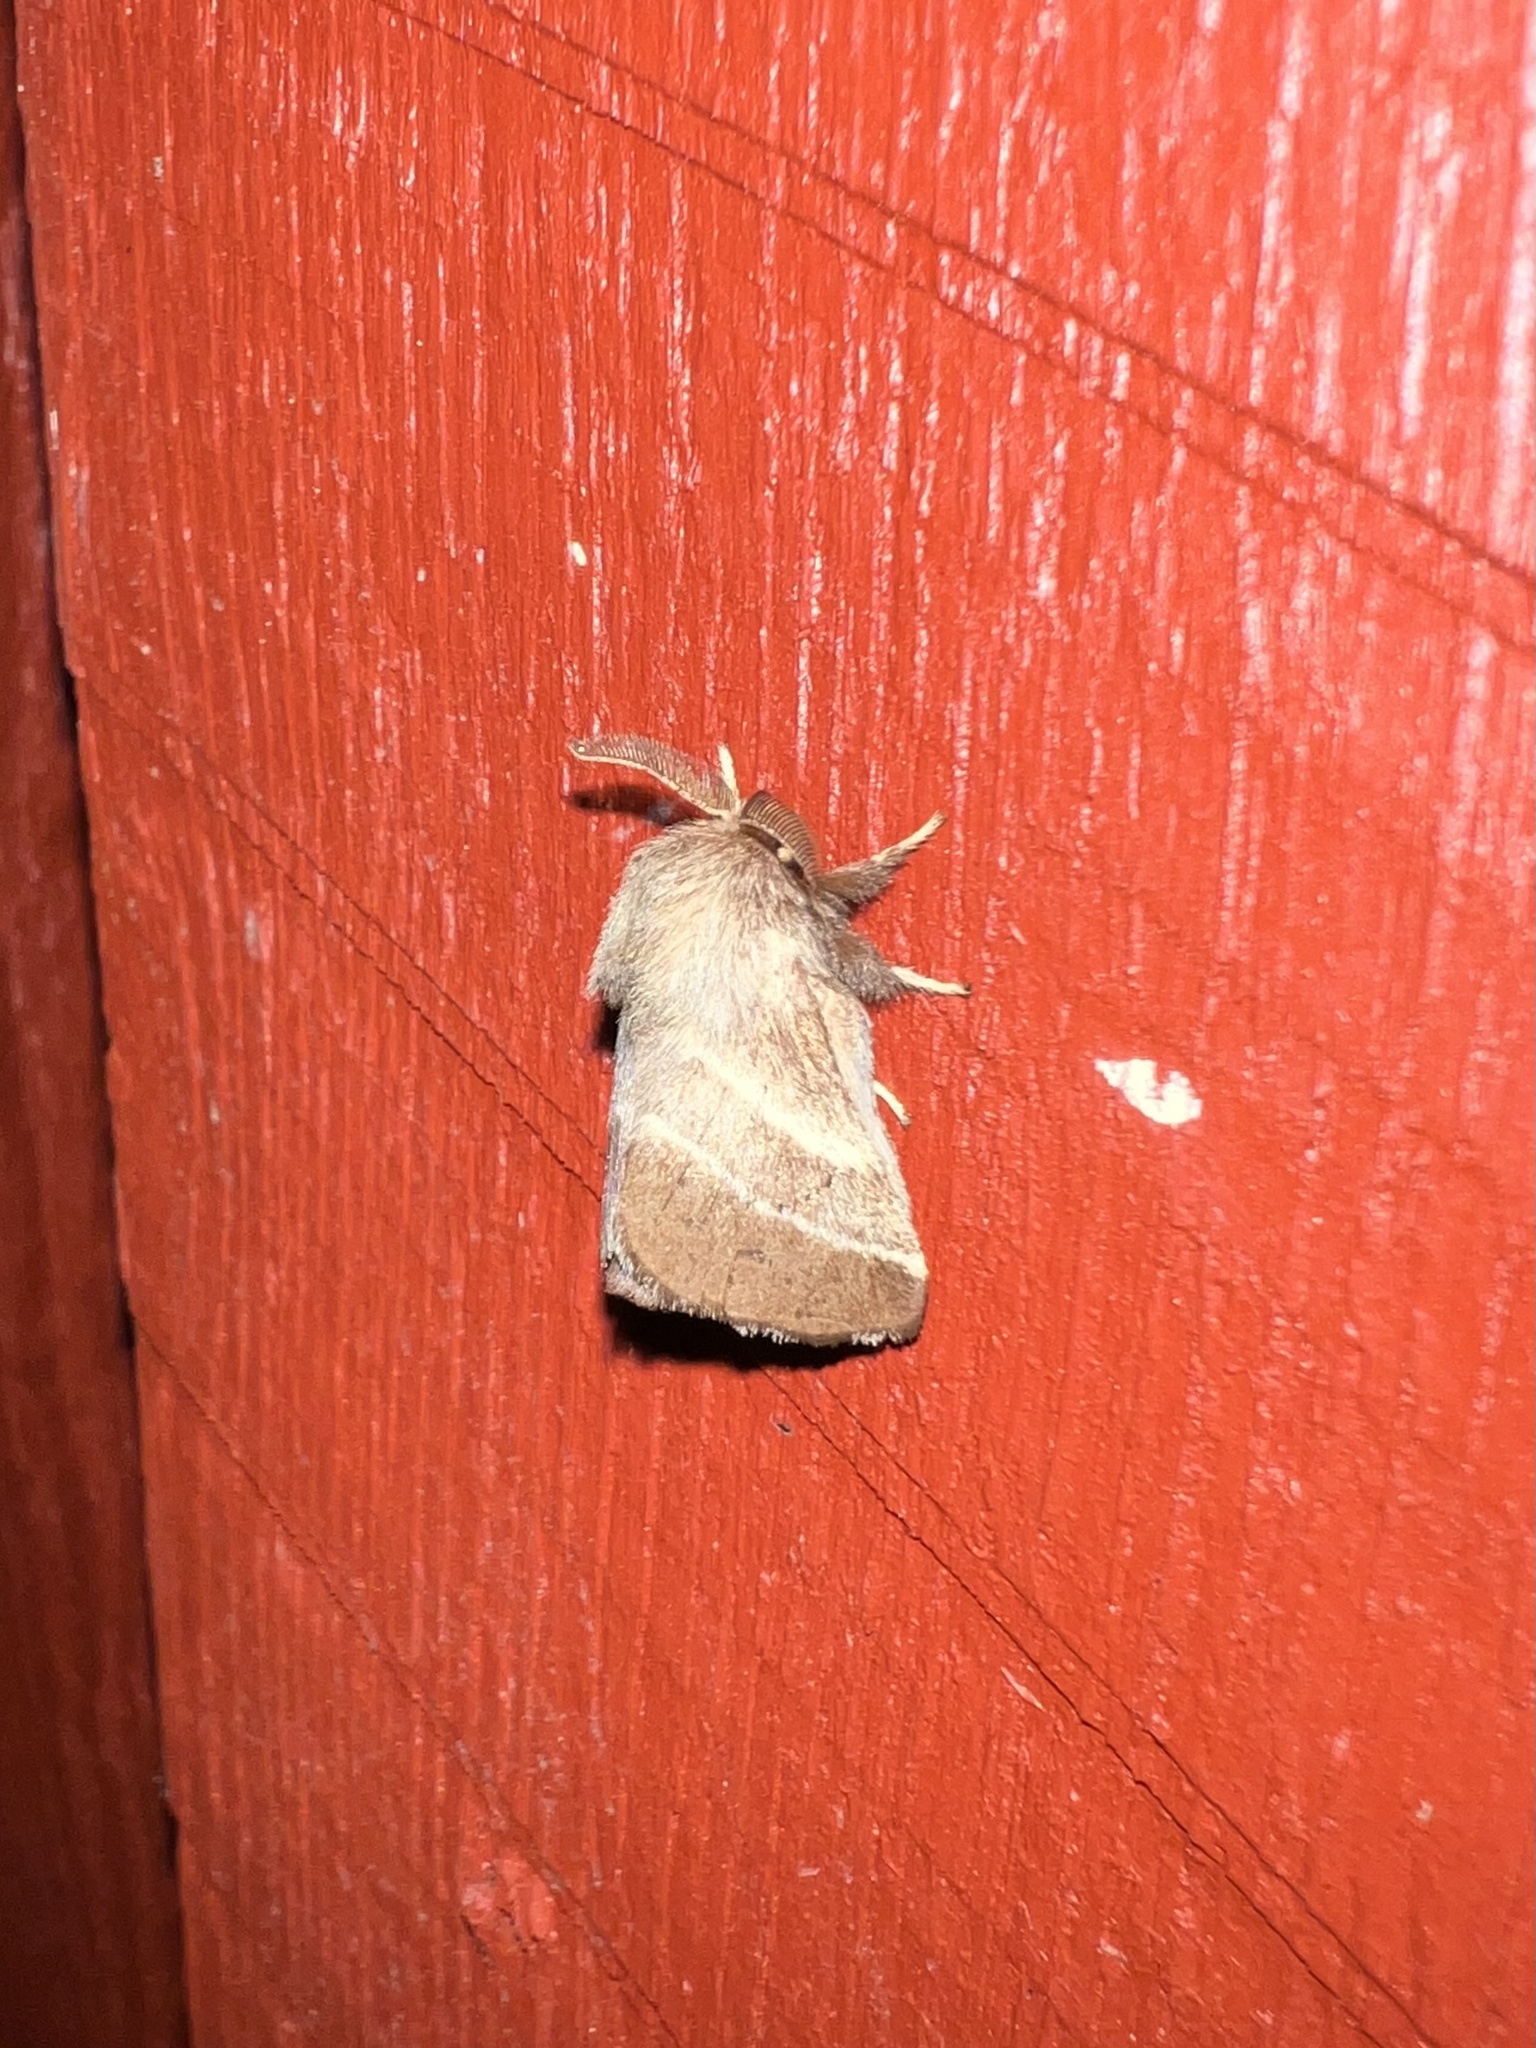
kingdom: Animalia
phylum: Arthropoda
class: Insecta
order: Lepidoptera
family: Lasiocampidae
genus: Malacosoma
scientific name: Malacosoma americana
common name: Eastern tent caterpillar moth
